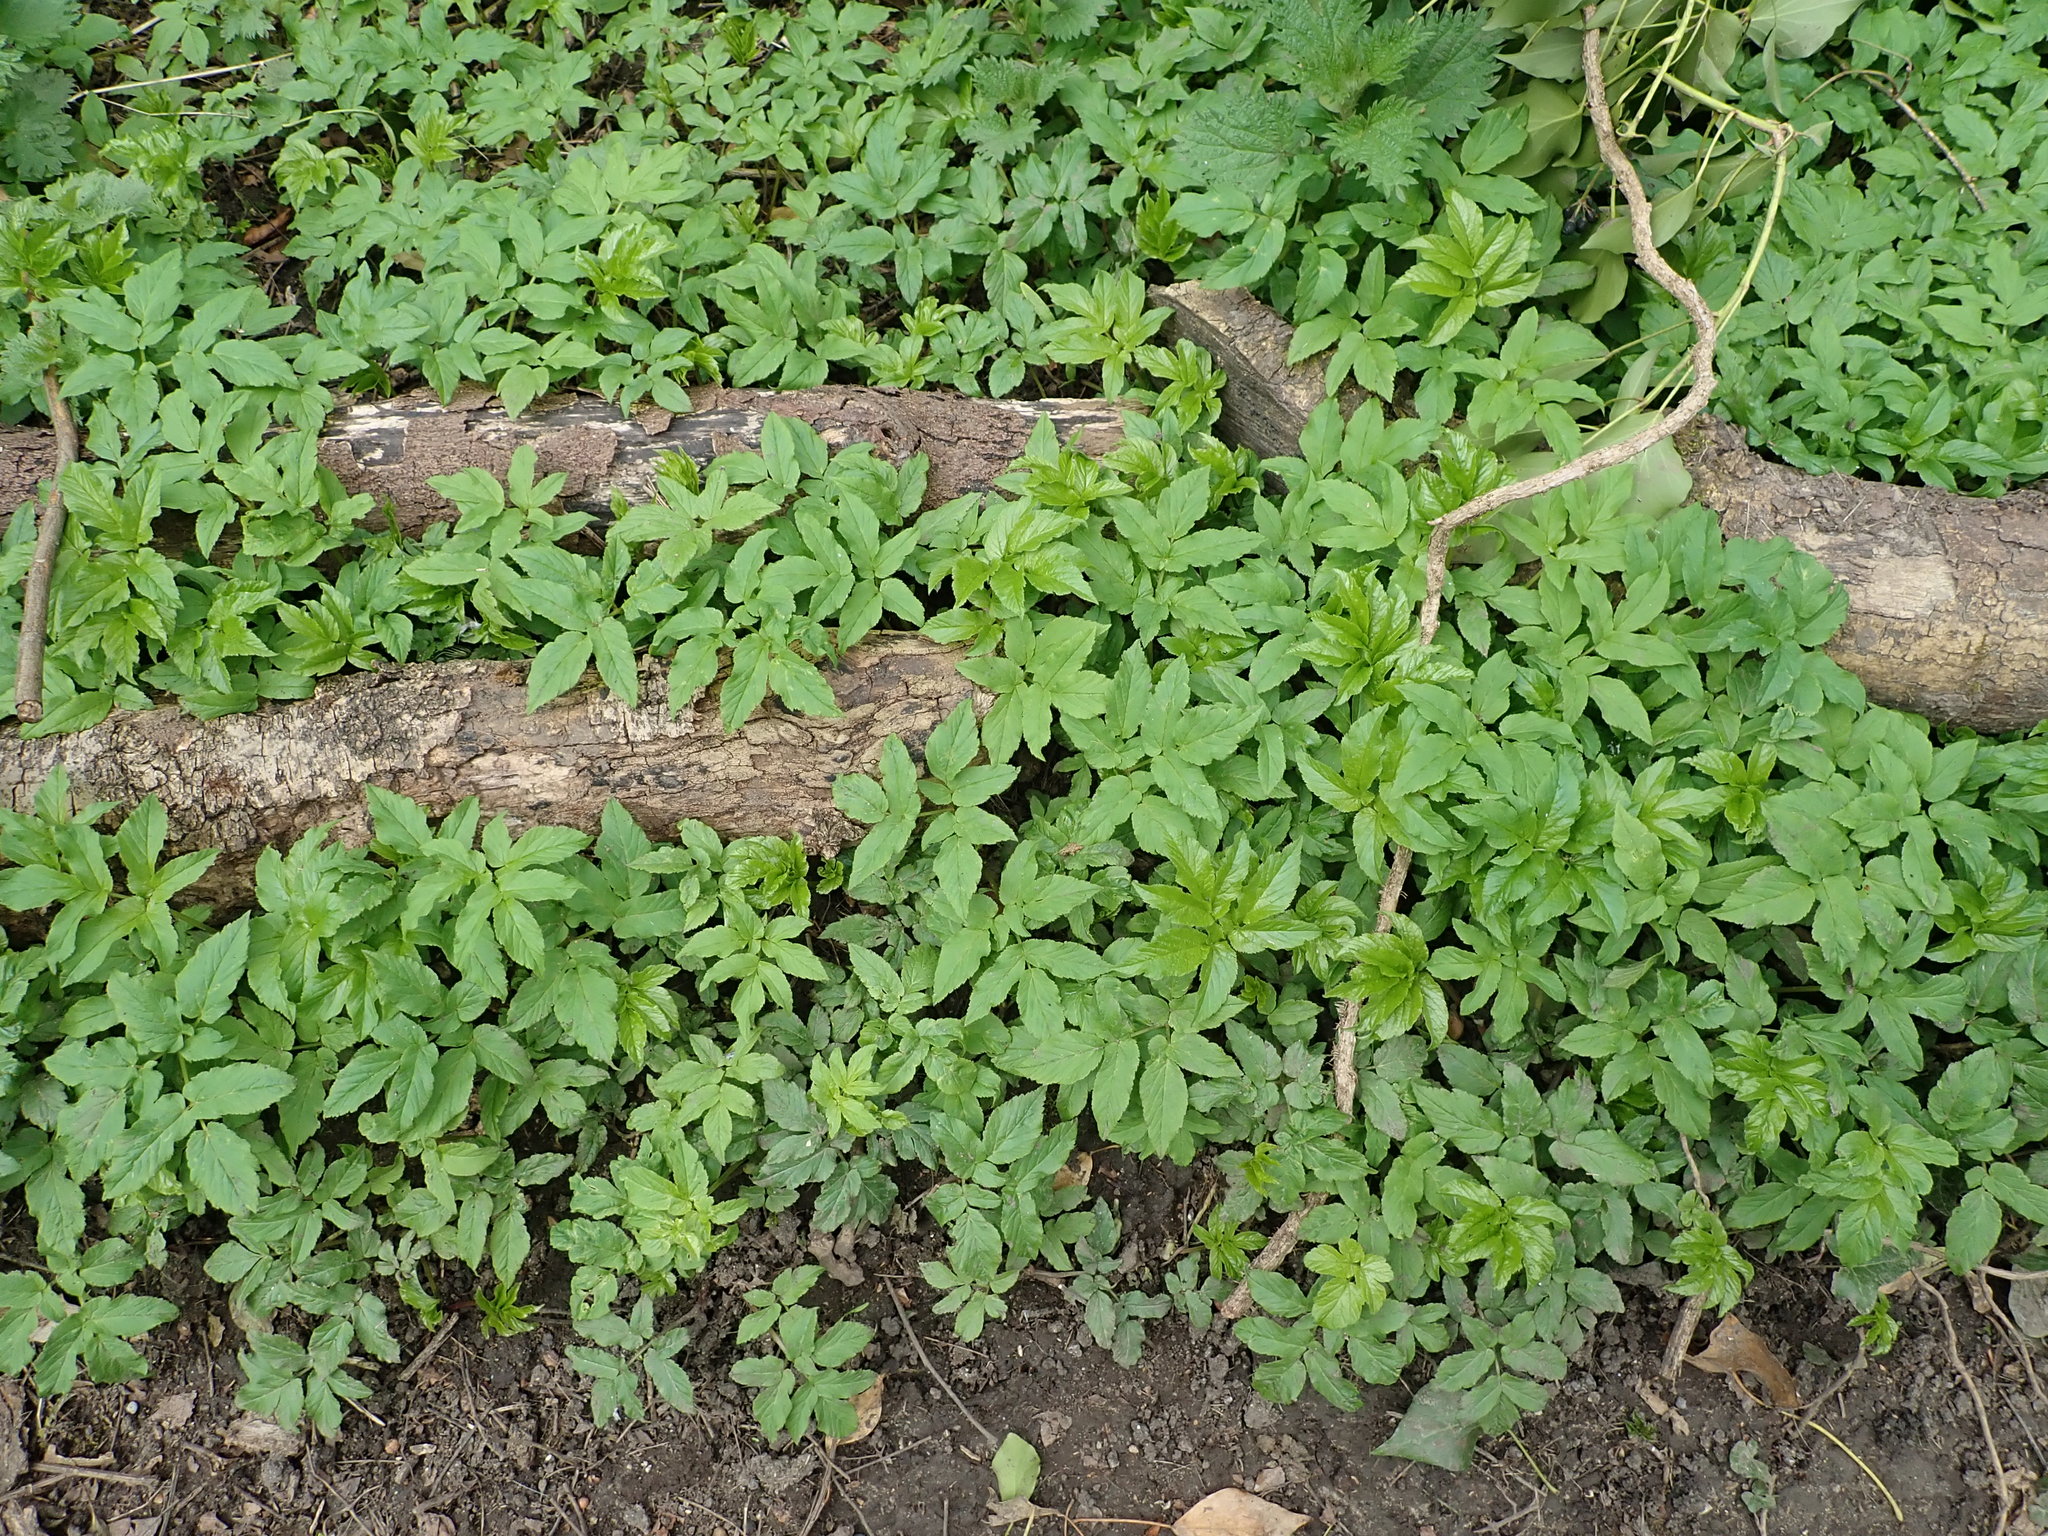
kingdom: Plantae
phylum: Tracheophyta
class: Magnoliopsida
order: Apiales
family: Apiaceae
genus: Aegopodium
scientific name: Aegopodium podagraria
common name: Ground-elder
